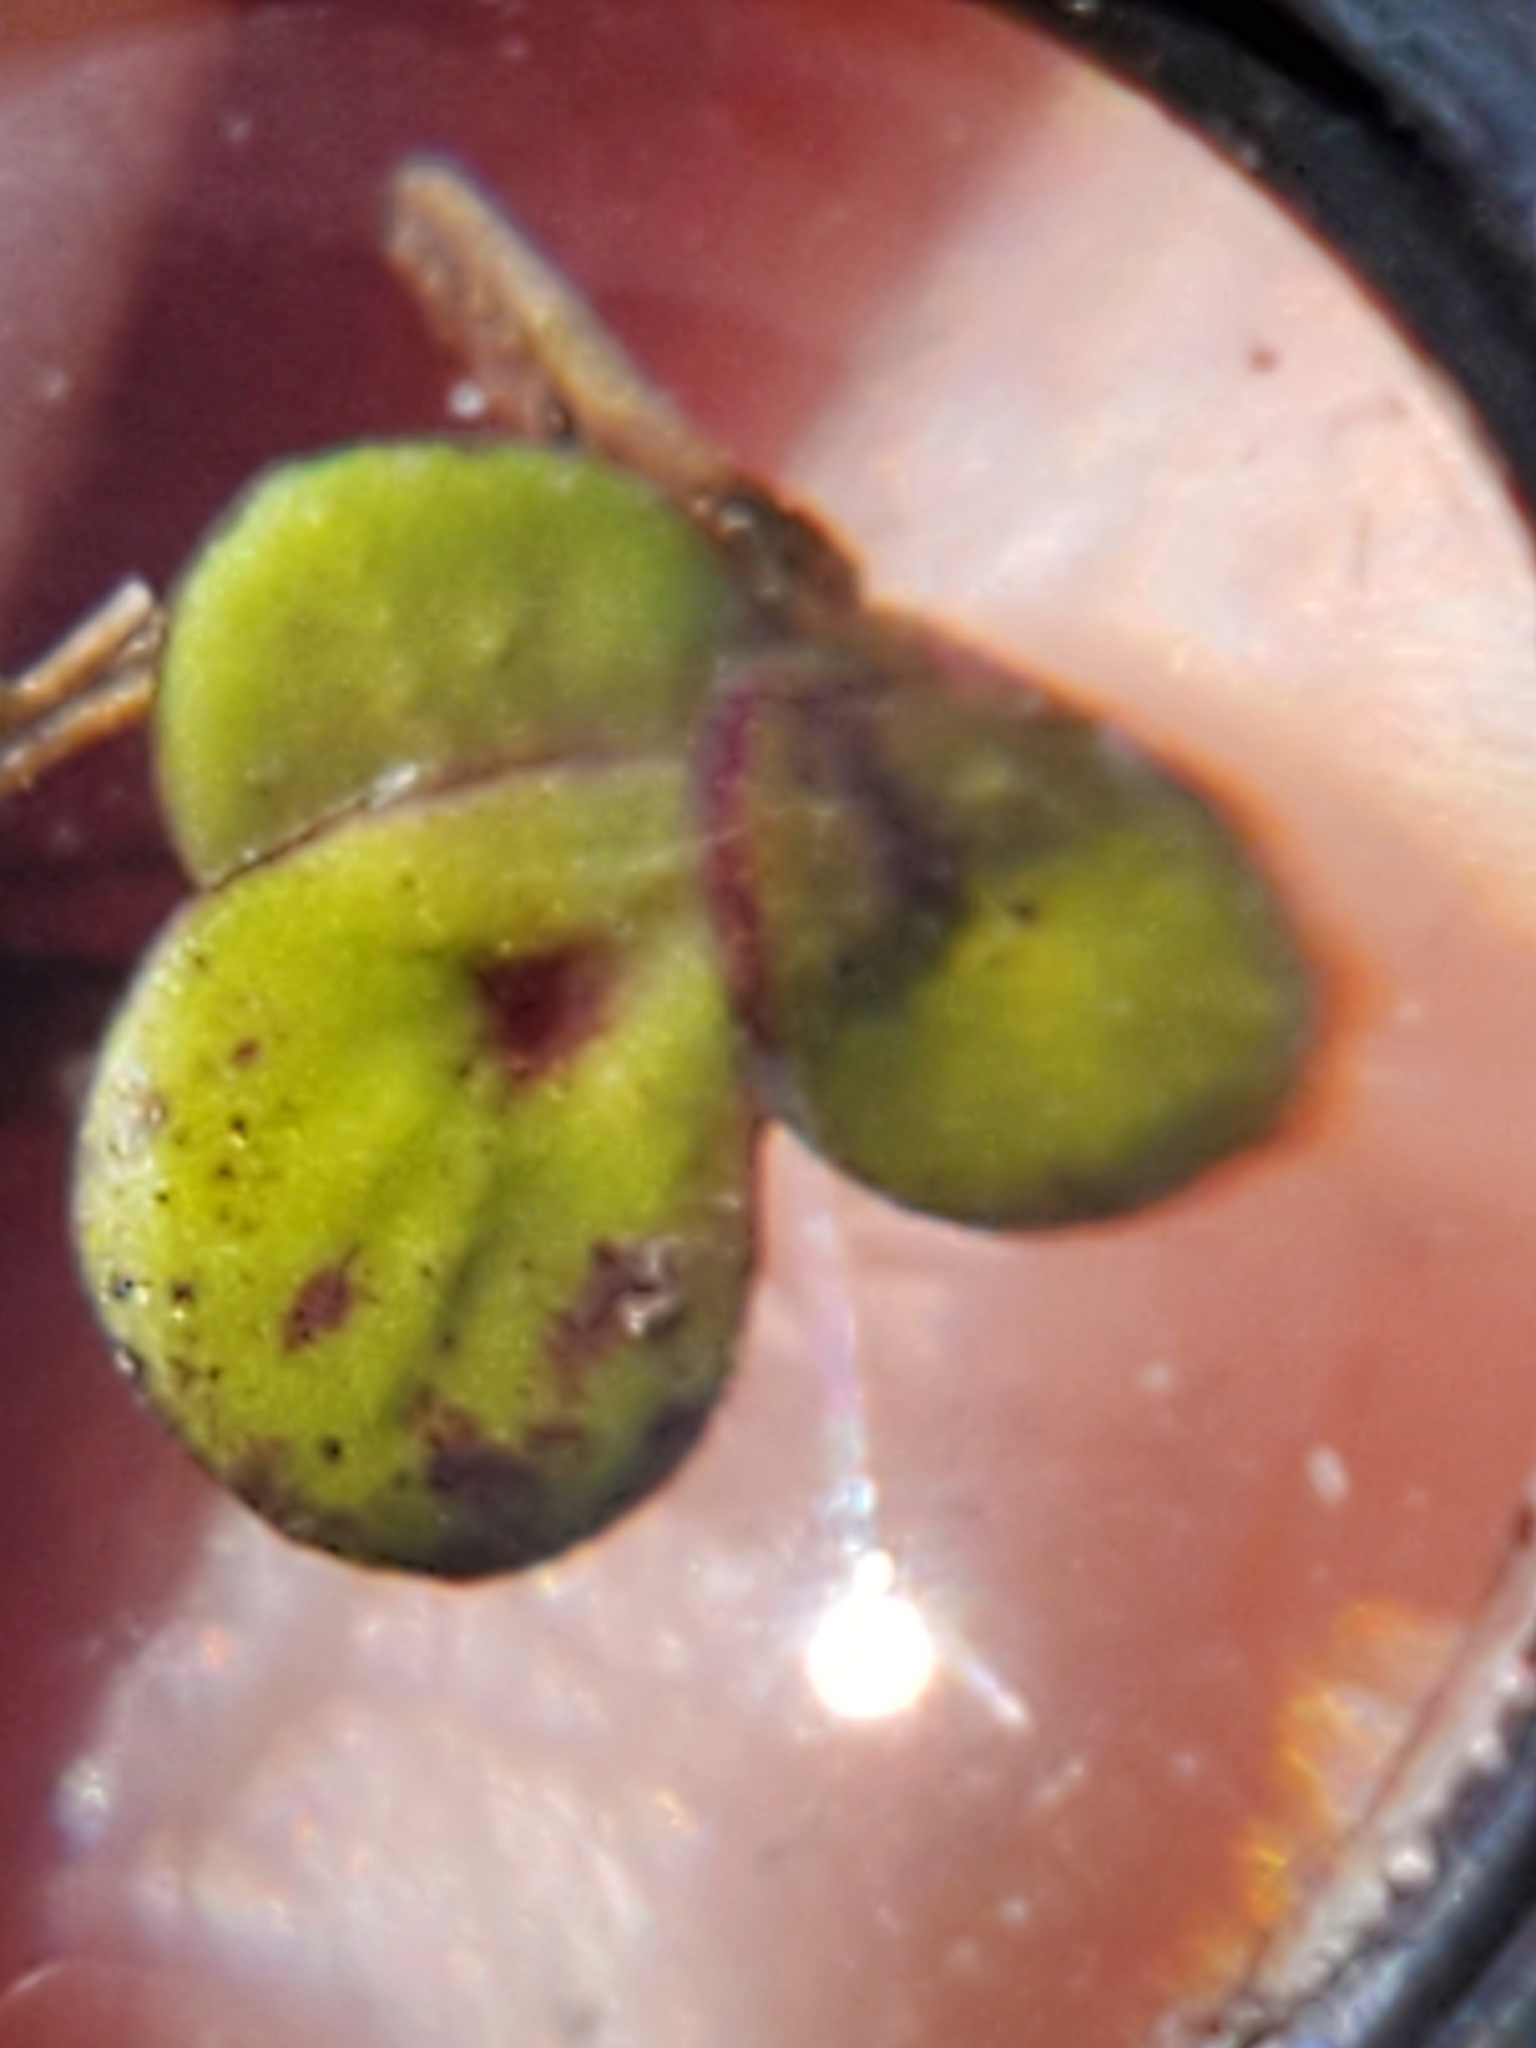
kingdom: Plantae
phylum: Tracheophyta
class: Liliopsida
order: Alismatales
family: Araceae
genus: Spirodela
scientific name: Spirodela polyrhiza
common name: Great duckweed
